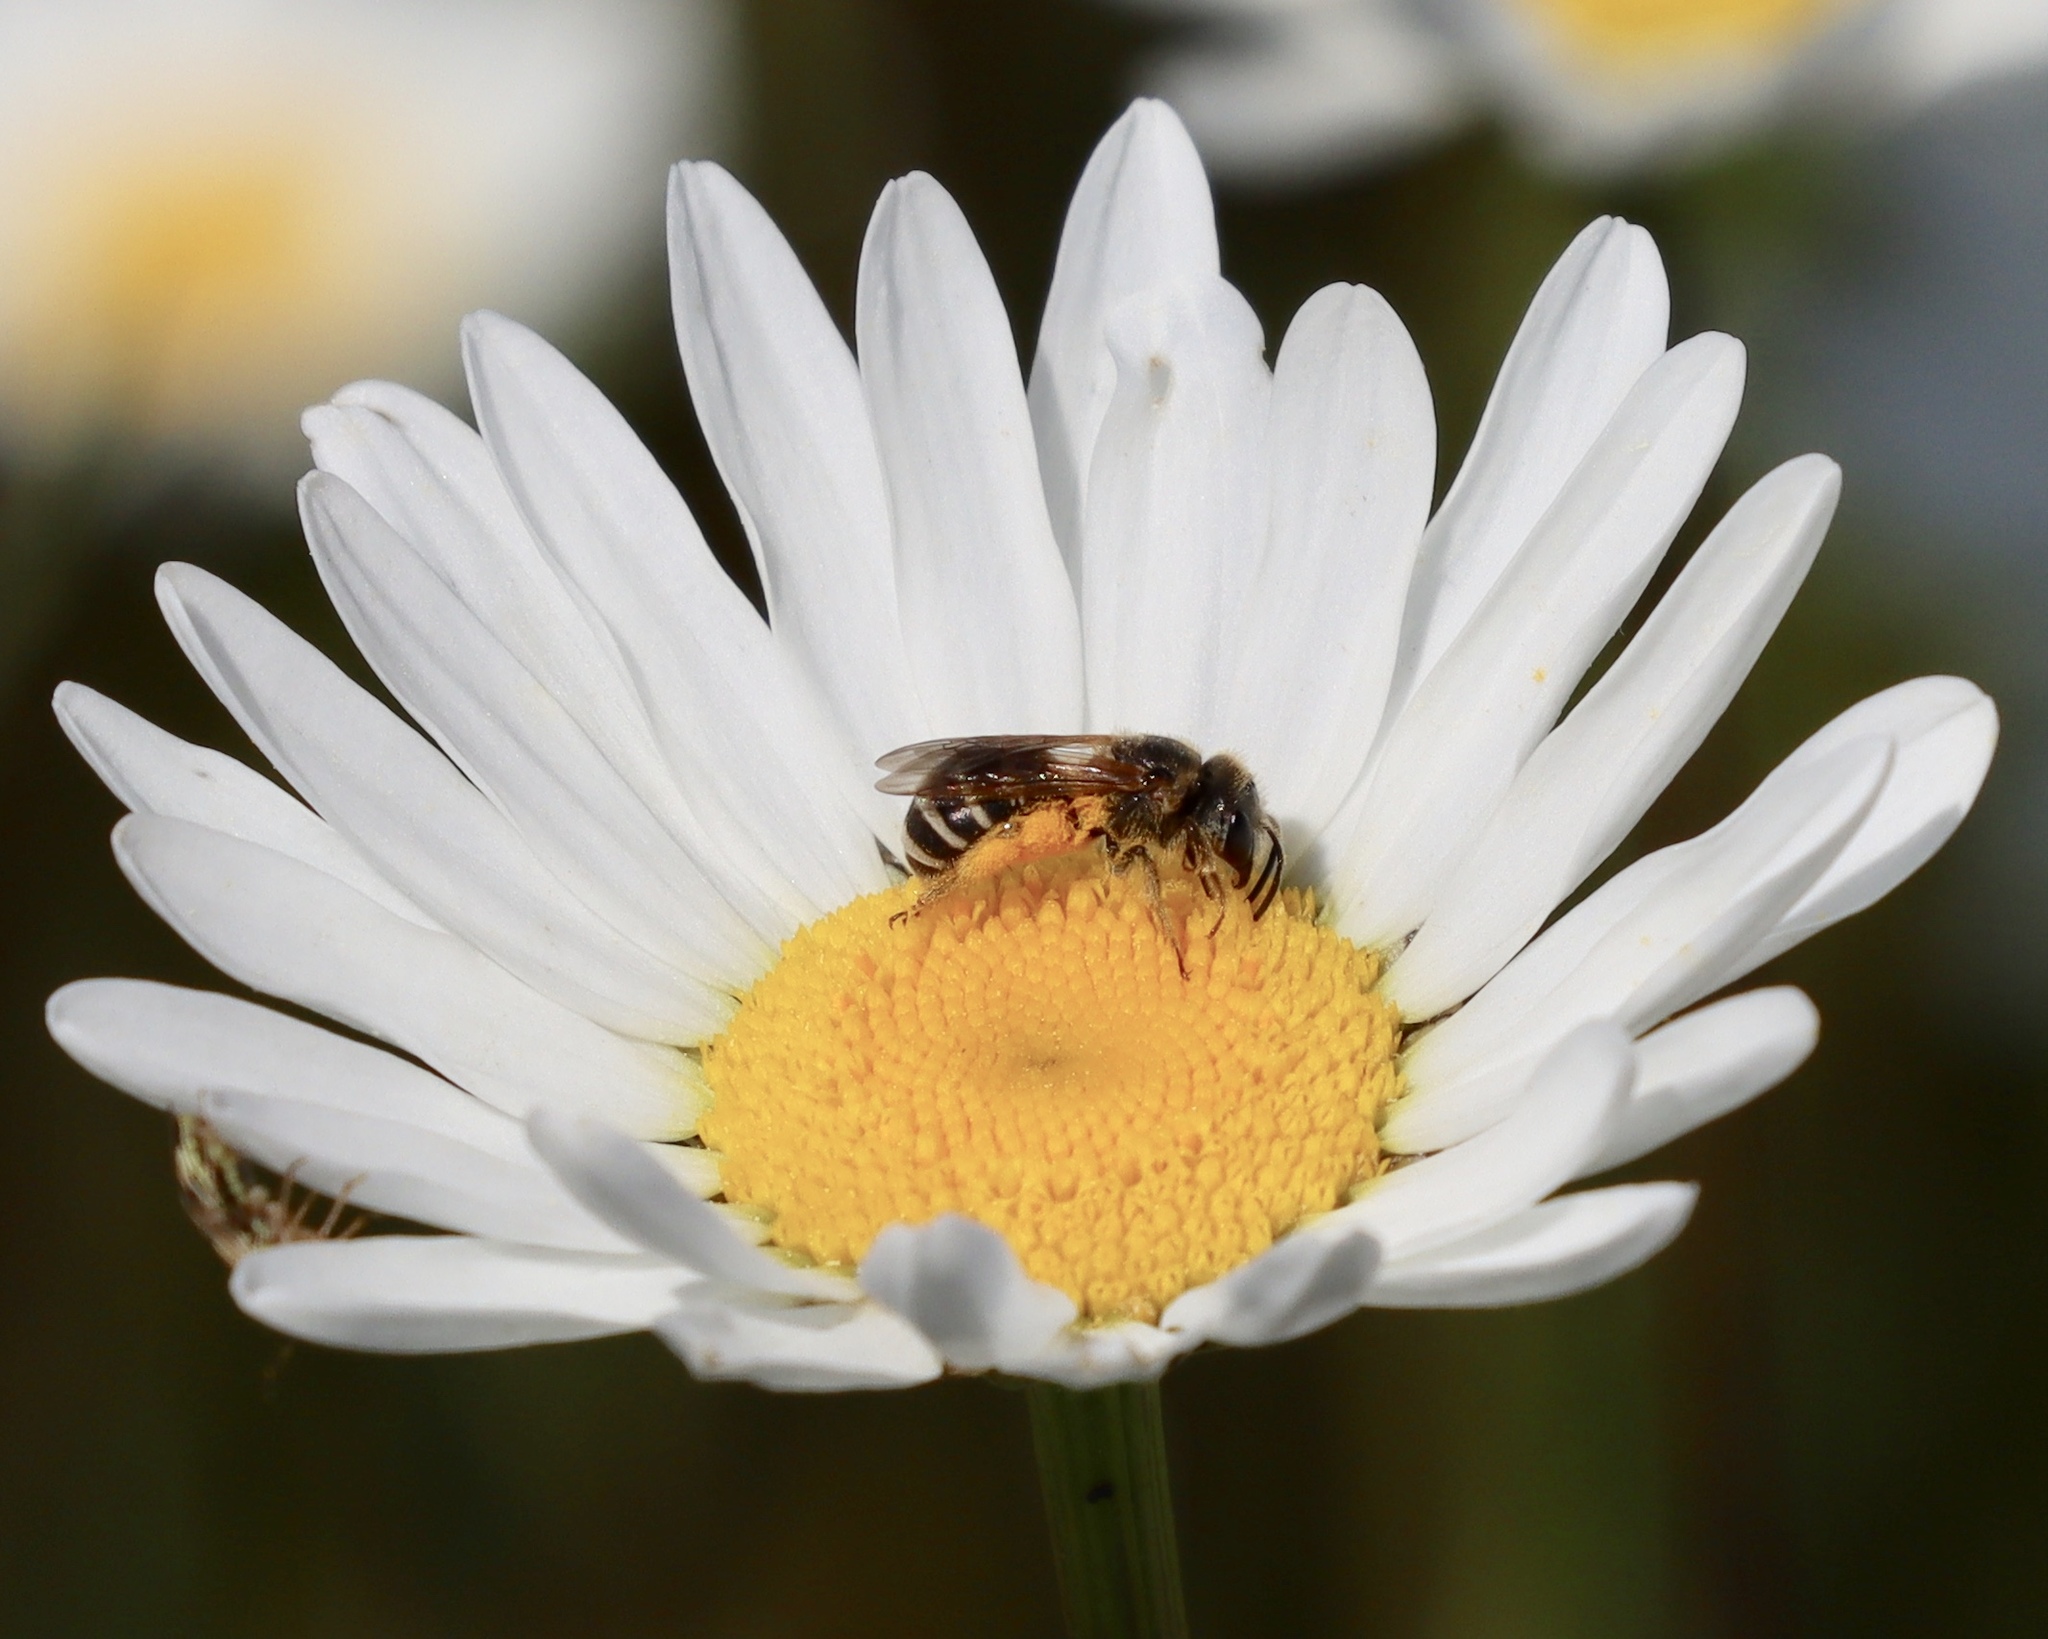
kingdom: Animalia
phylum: Arthropoda
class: Insecta
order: Hymenoptera
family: Halictidae
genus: Halictus
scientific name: Halictus ligatus
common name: Ligated furrow bee
